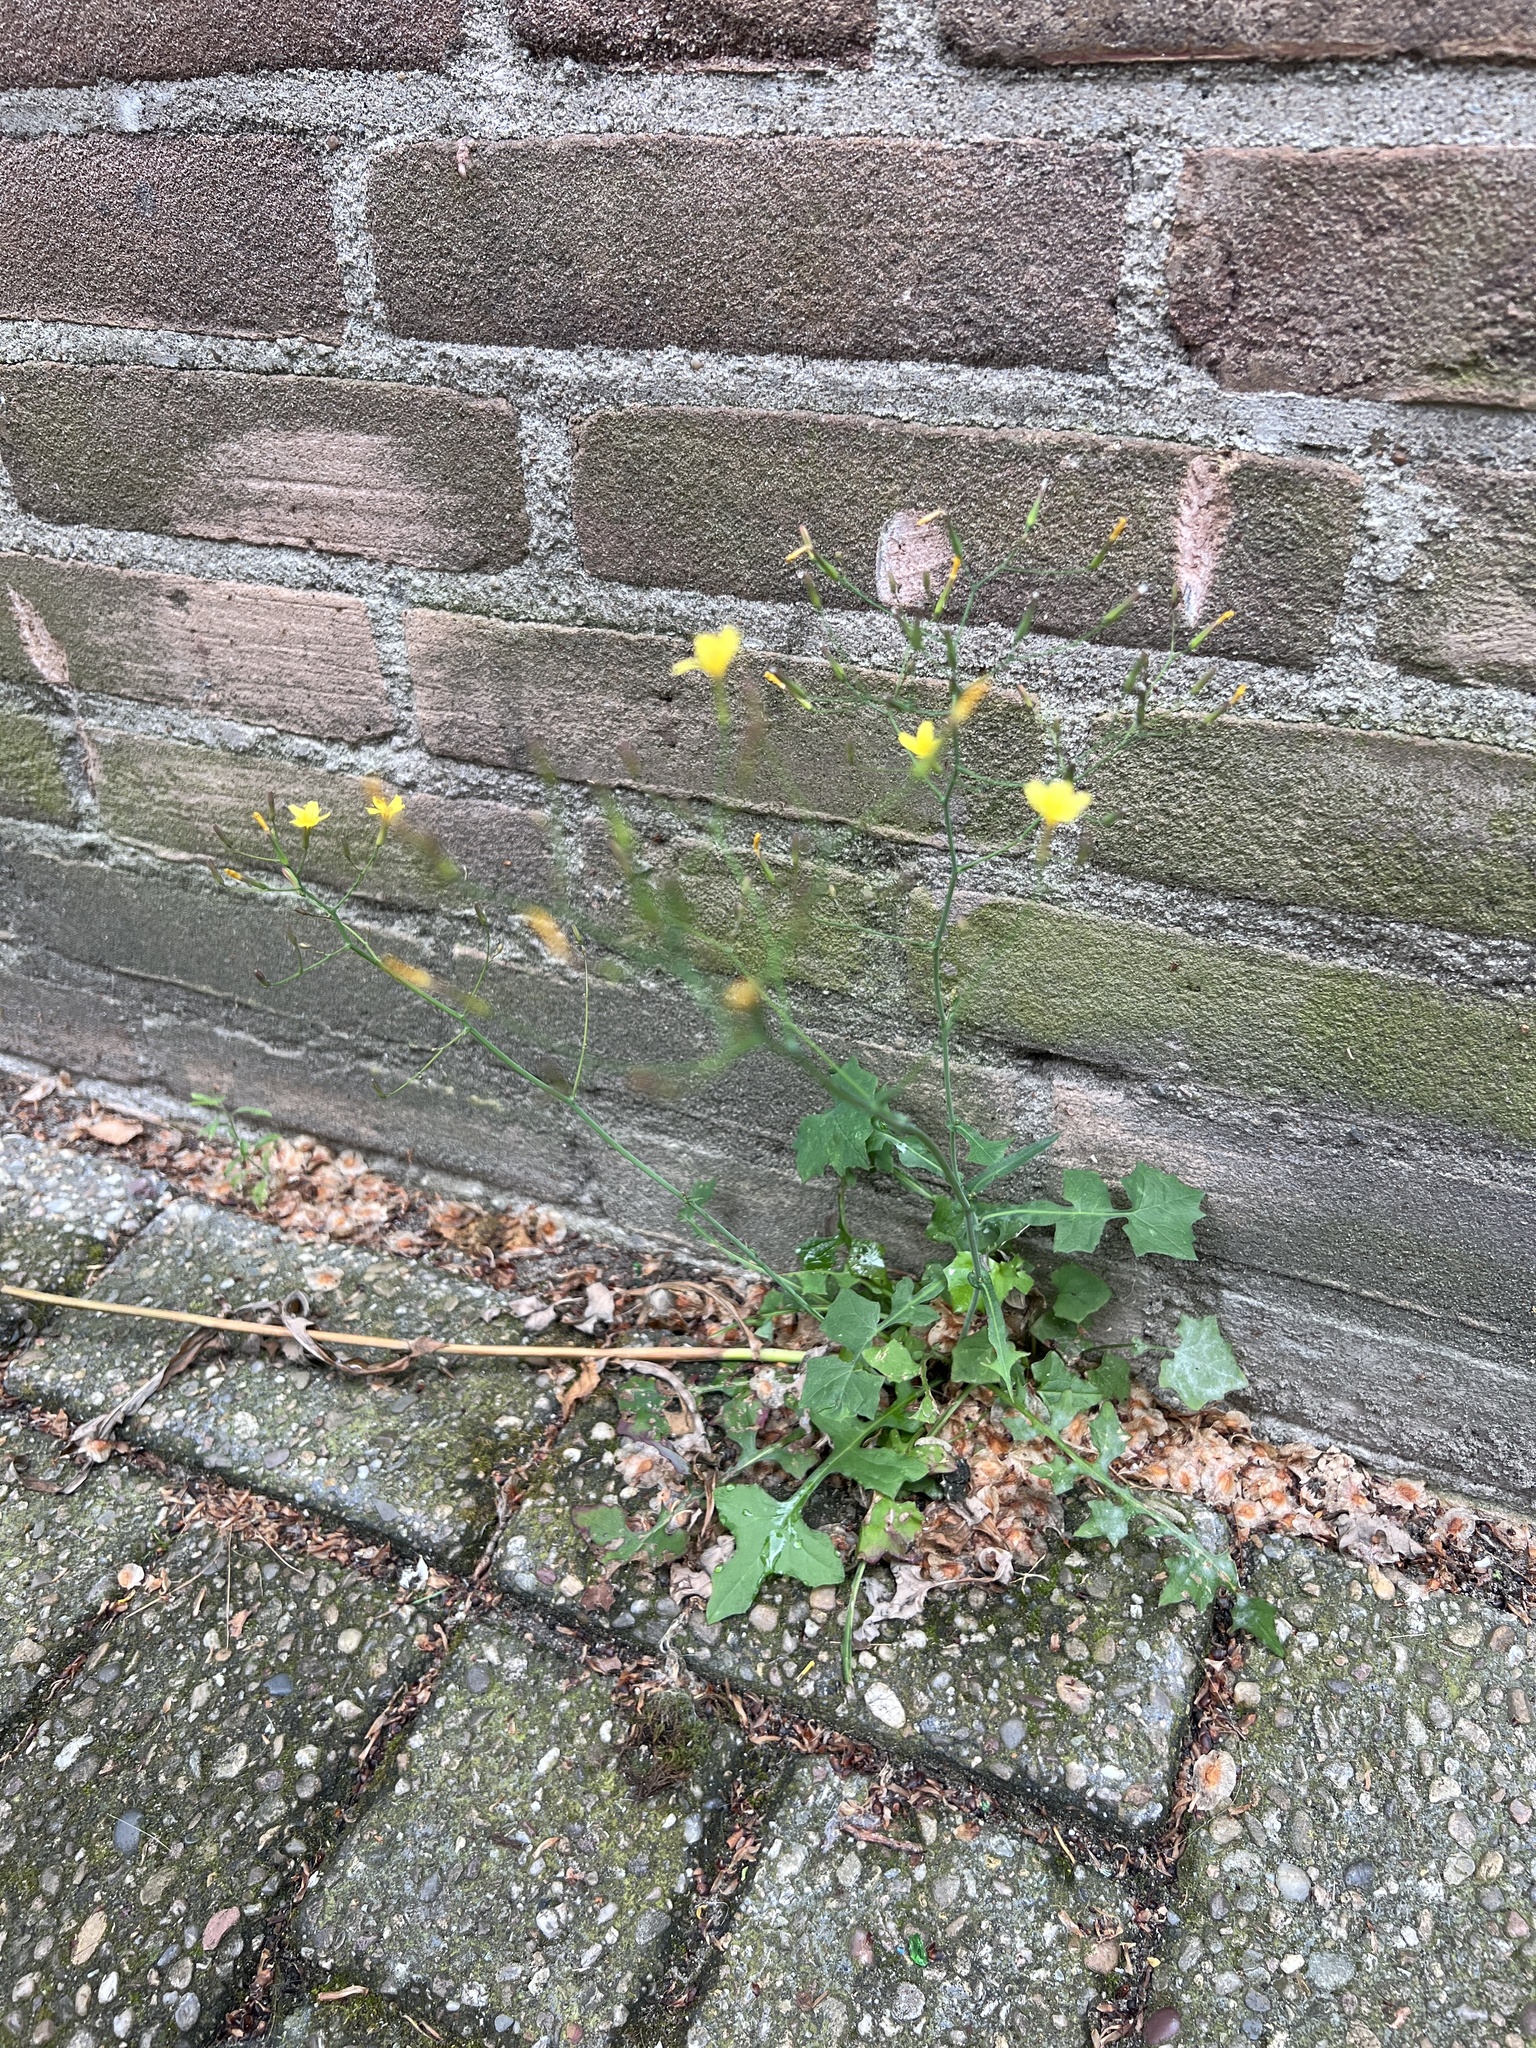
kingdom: Plantae
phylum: Tracheophyta
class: Magnoliopsida
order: Asterales
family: Asteraceae
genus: Mycelis
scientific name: Mycelis muralis
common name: Wall lettuce
